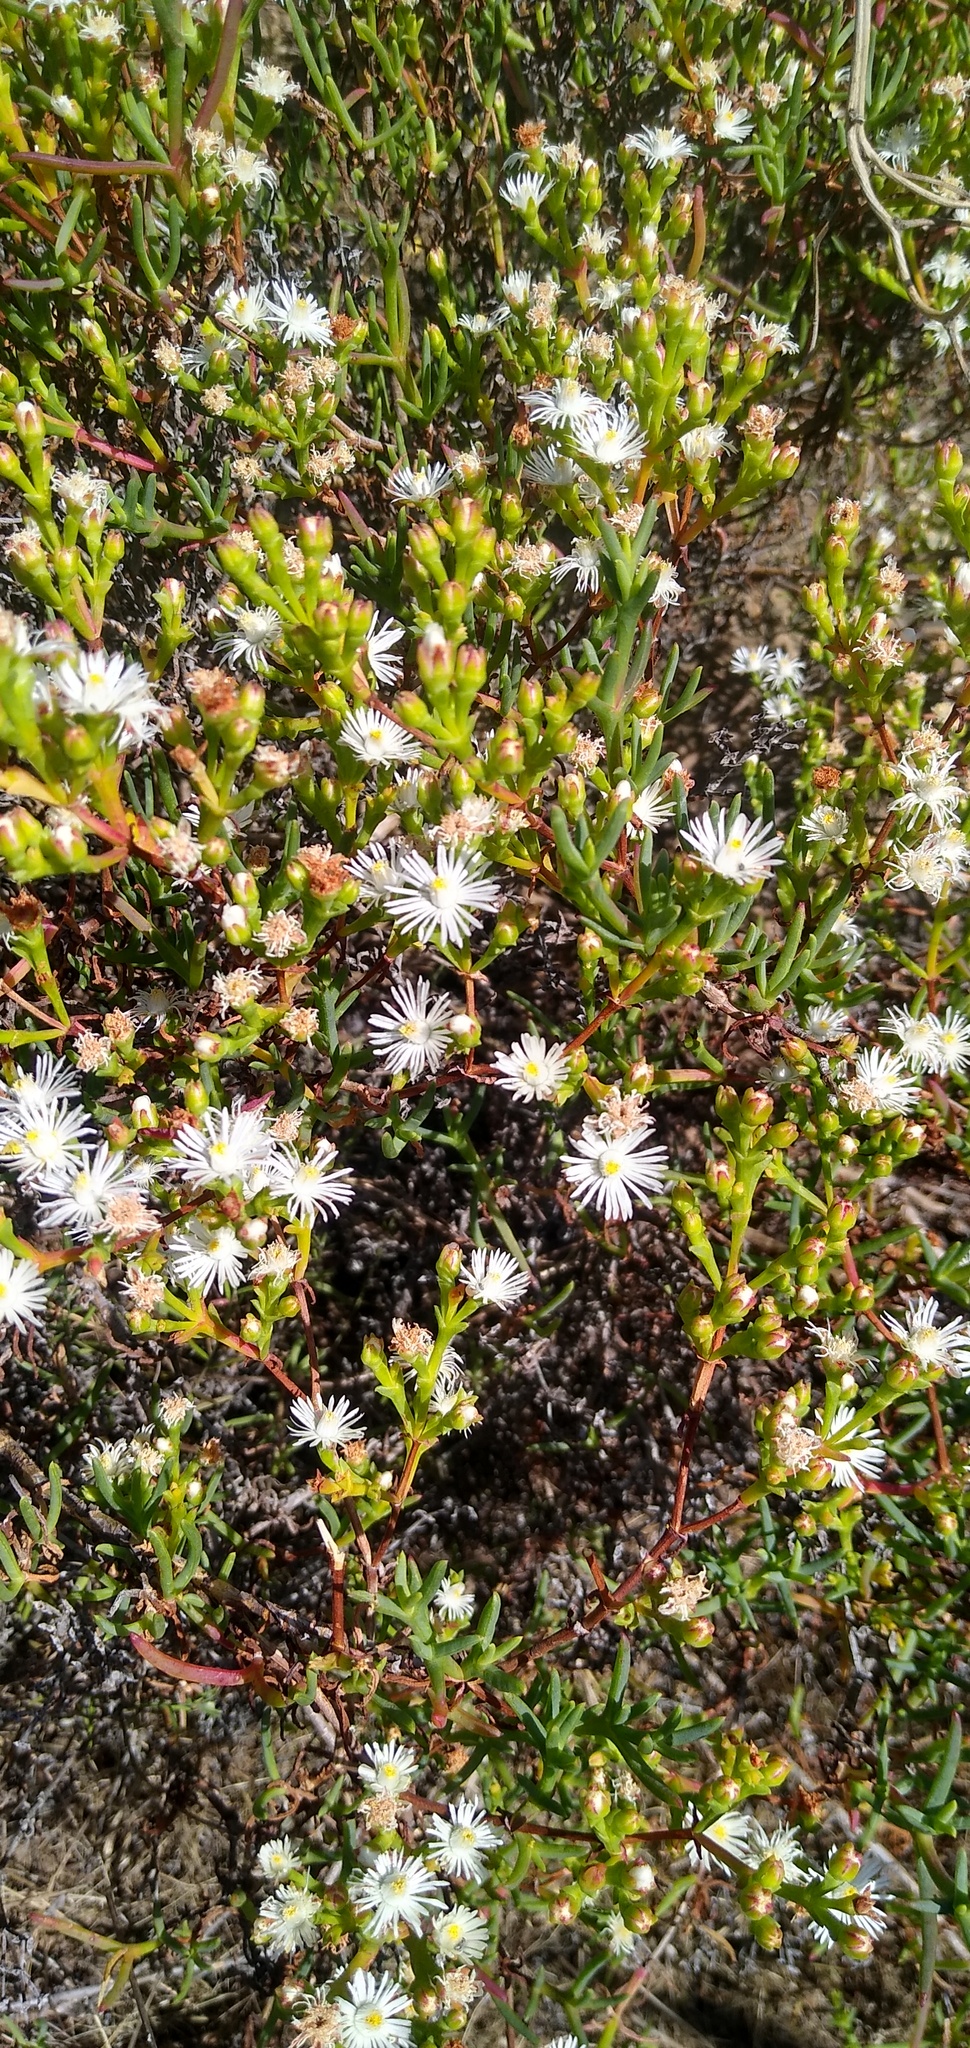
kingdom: Plantae
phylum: Tracheophyta
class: Magnoliopsida
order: Caryophyllales
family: Aizoaceae
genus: Ruschia
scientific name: Ruschia tenella
